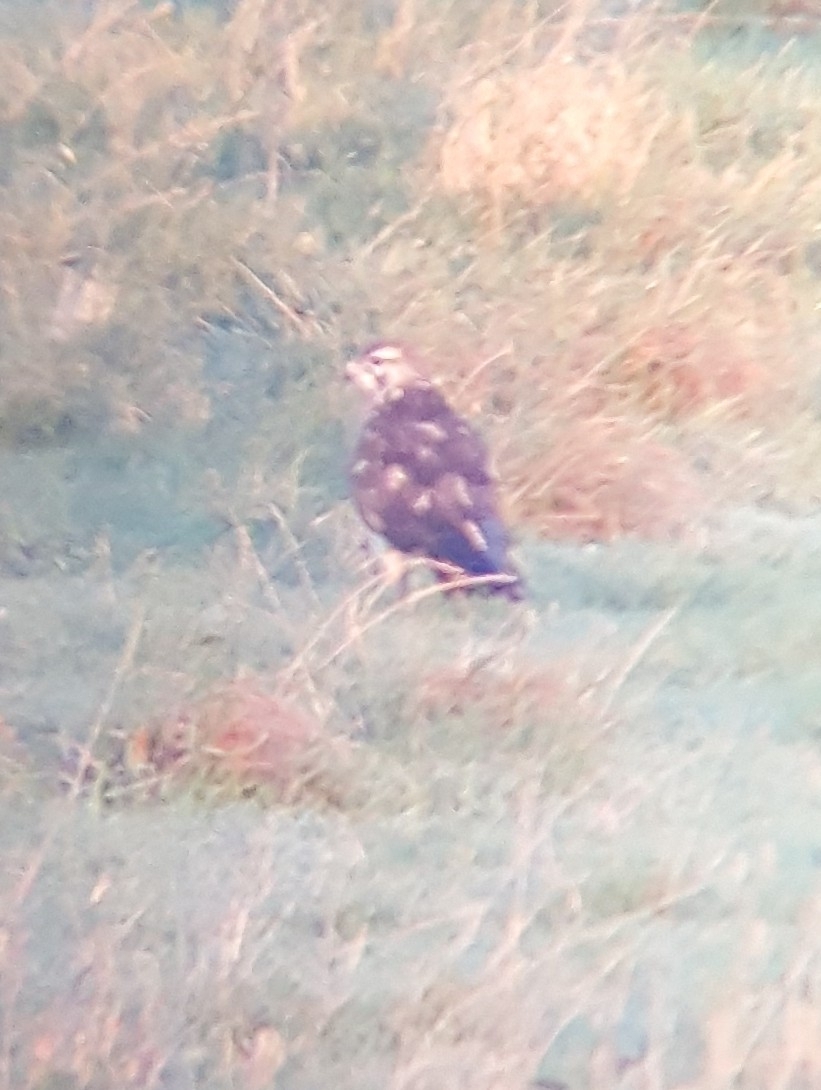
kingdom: Animalia
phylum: Chordata
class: Aves
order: Accipitriformes
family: Accipitridae
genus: Buteo
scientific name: Buteo buteo
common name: Common buzzard
